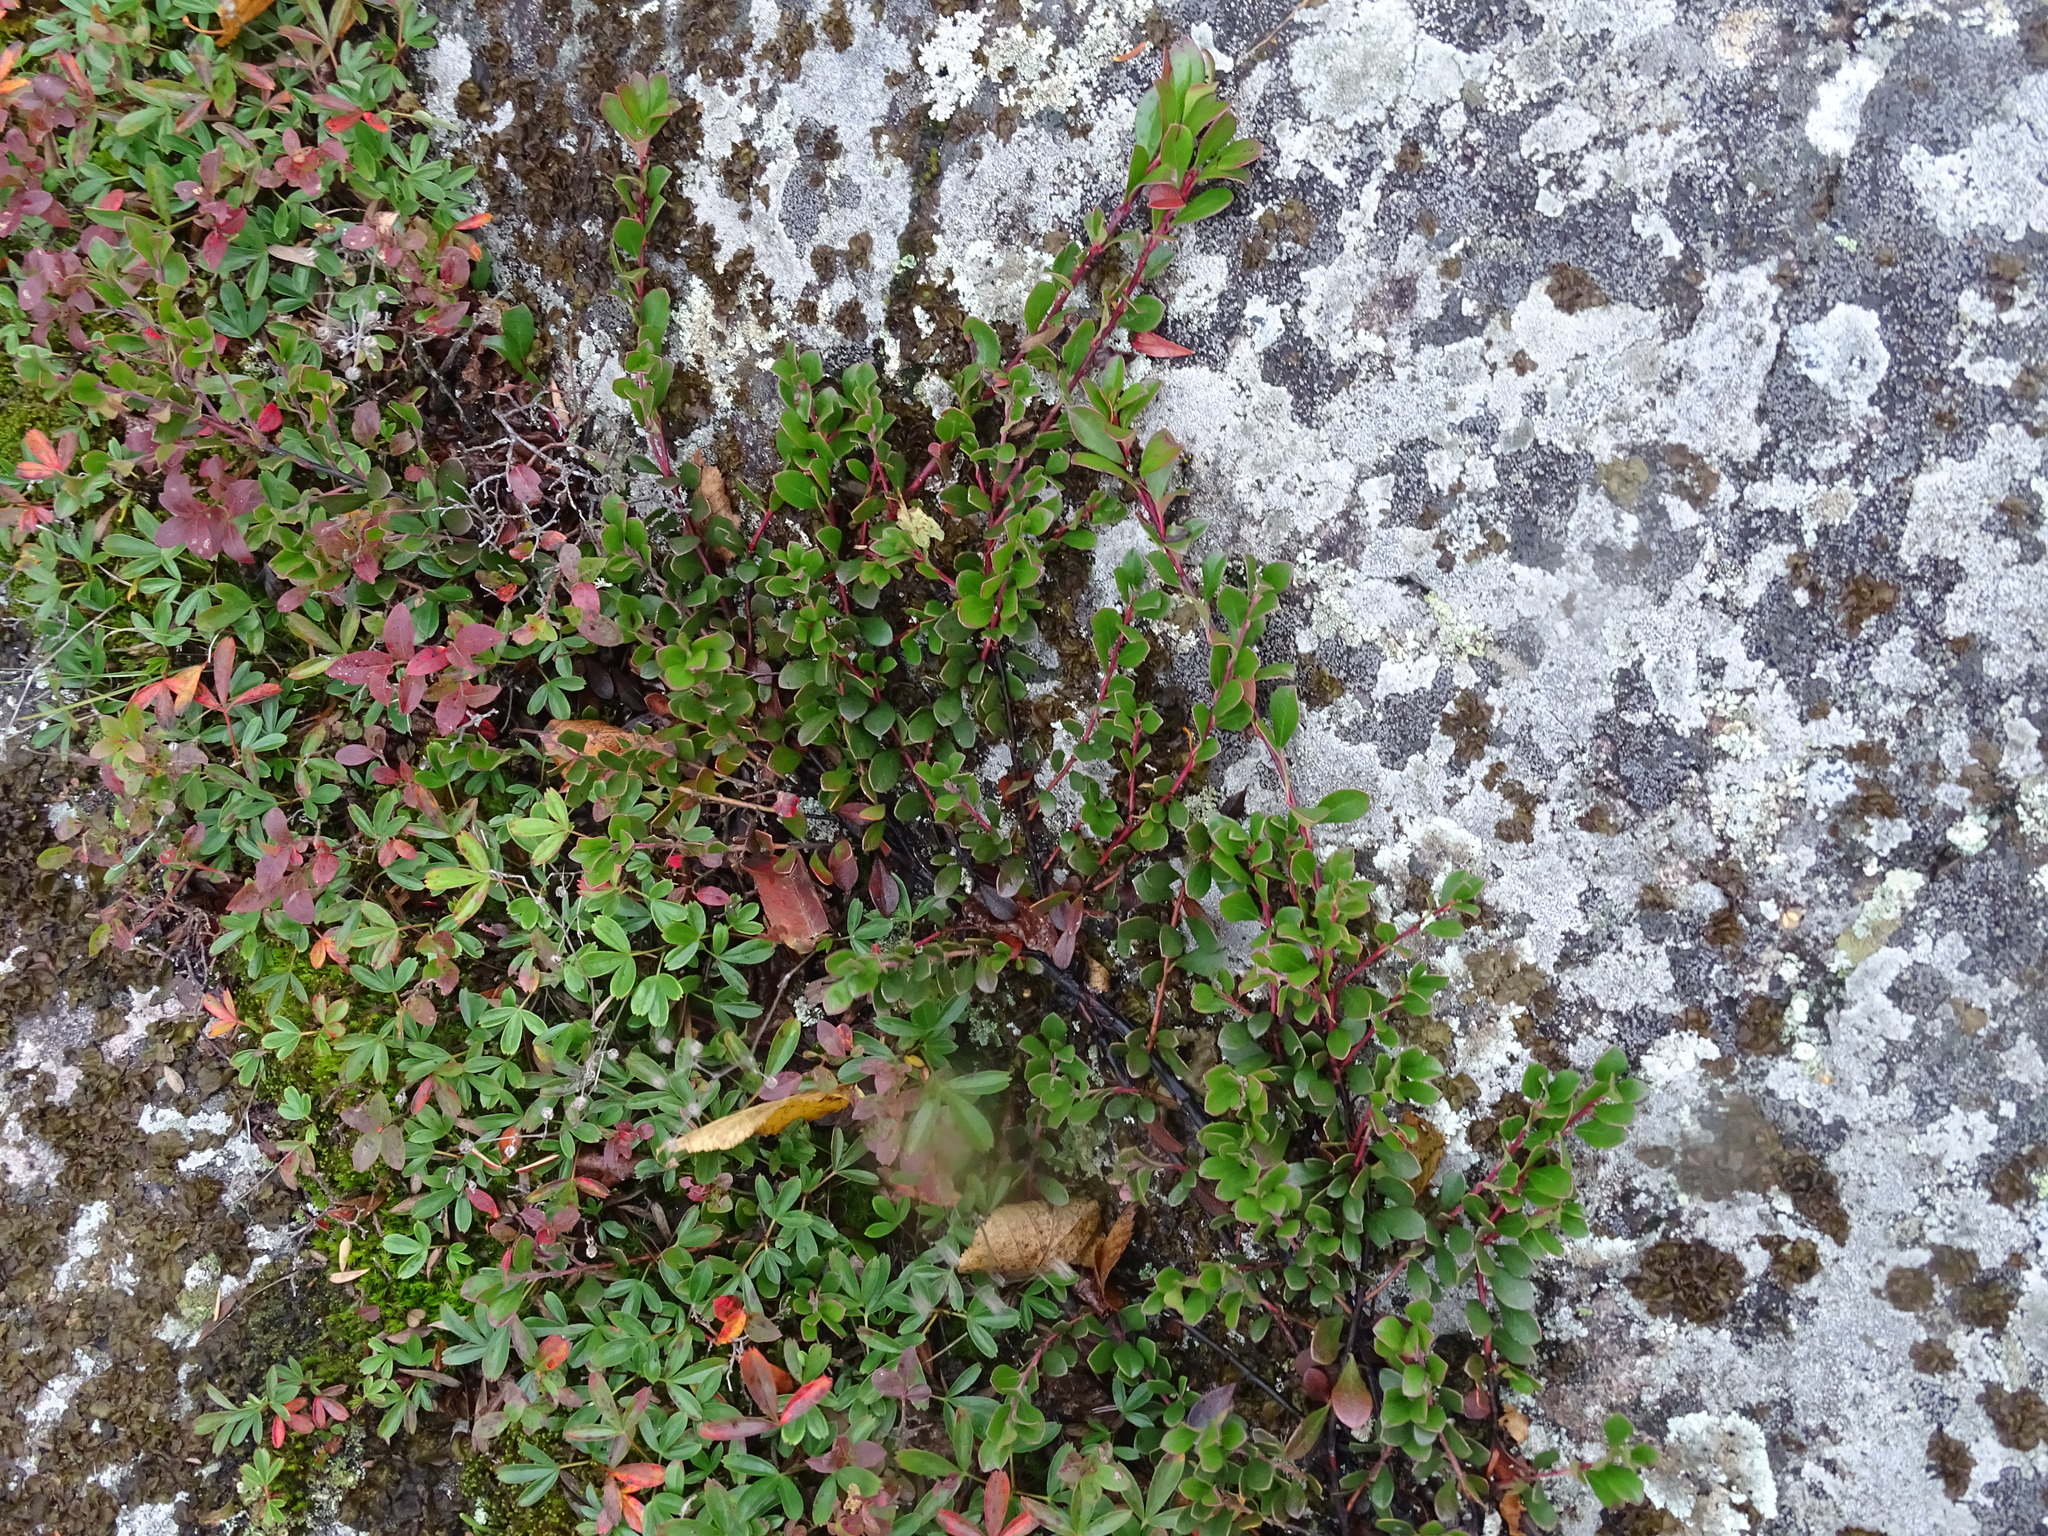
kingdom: Plantae
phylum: Tracheophyta
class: Magnoliopsida
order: Ericales
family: Ericaceae
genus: Arctostaphylos
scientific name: Arctostaphylos uva-ursi
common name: Bearberry
